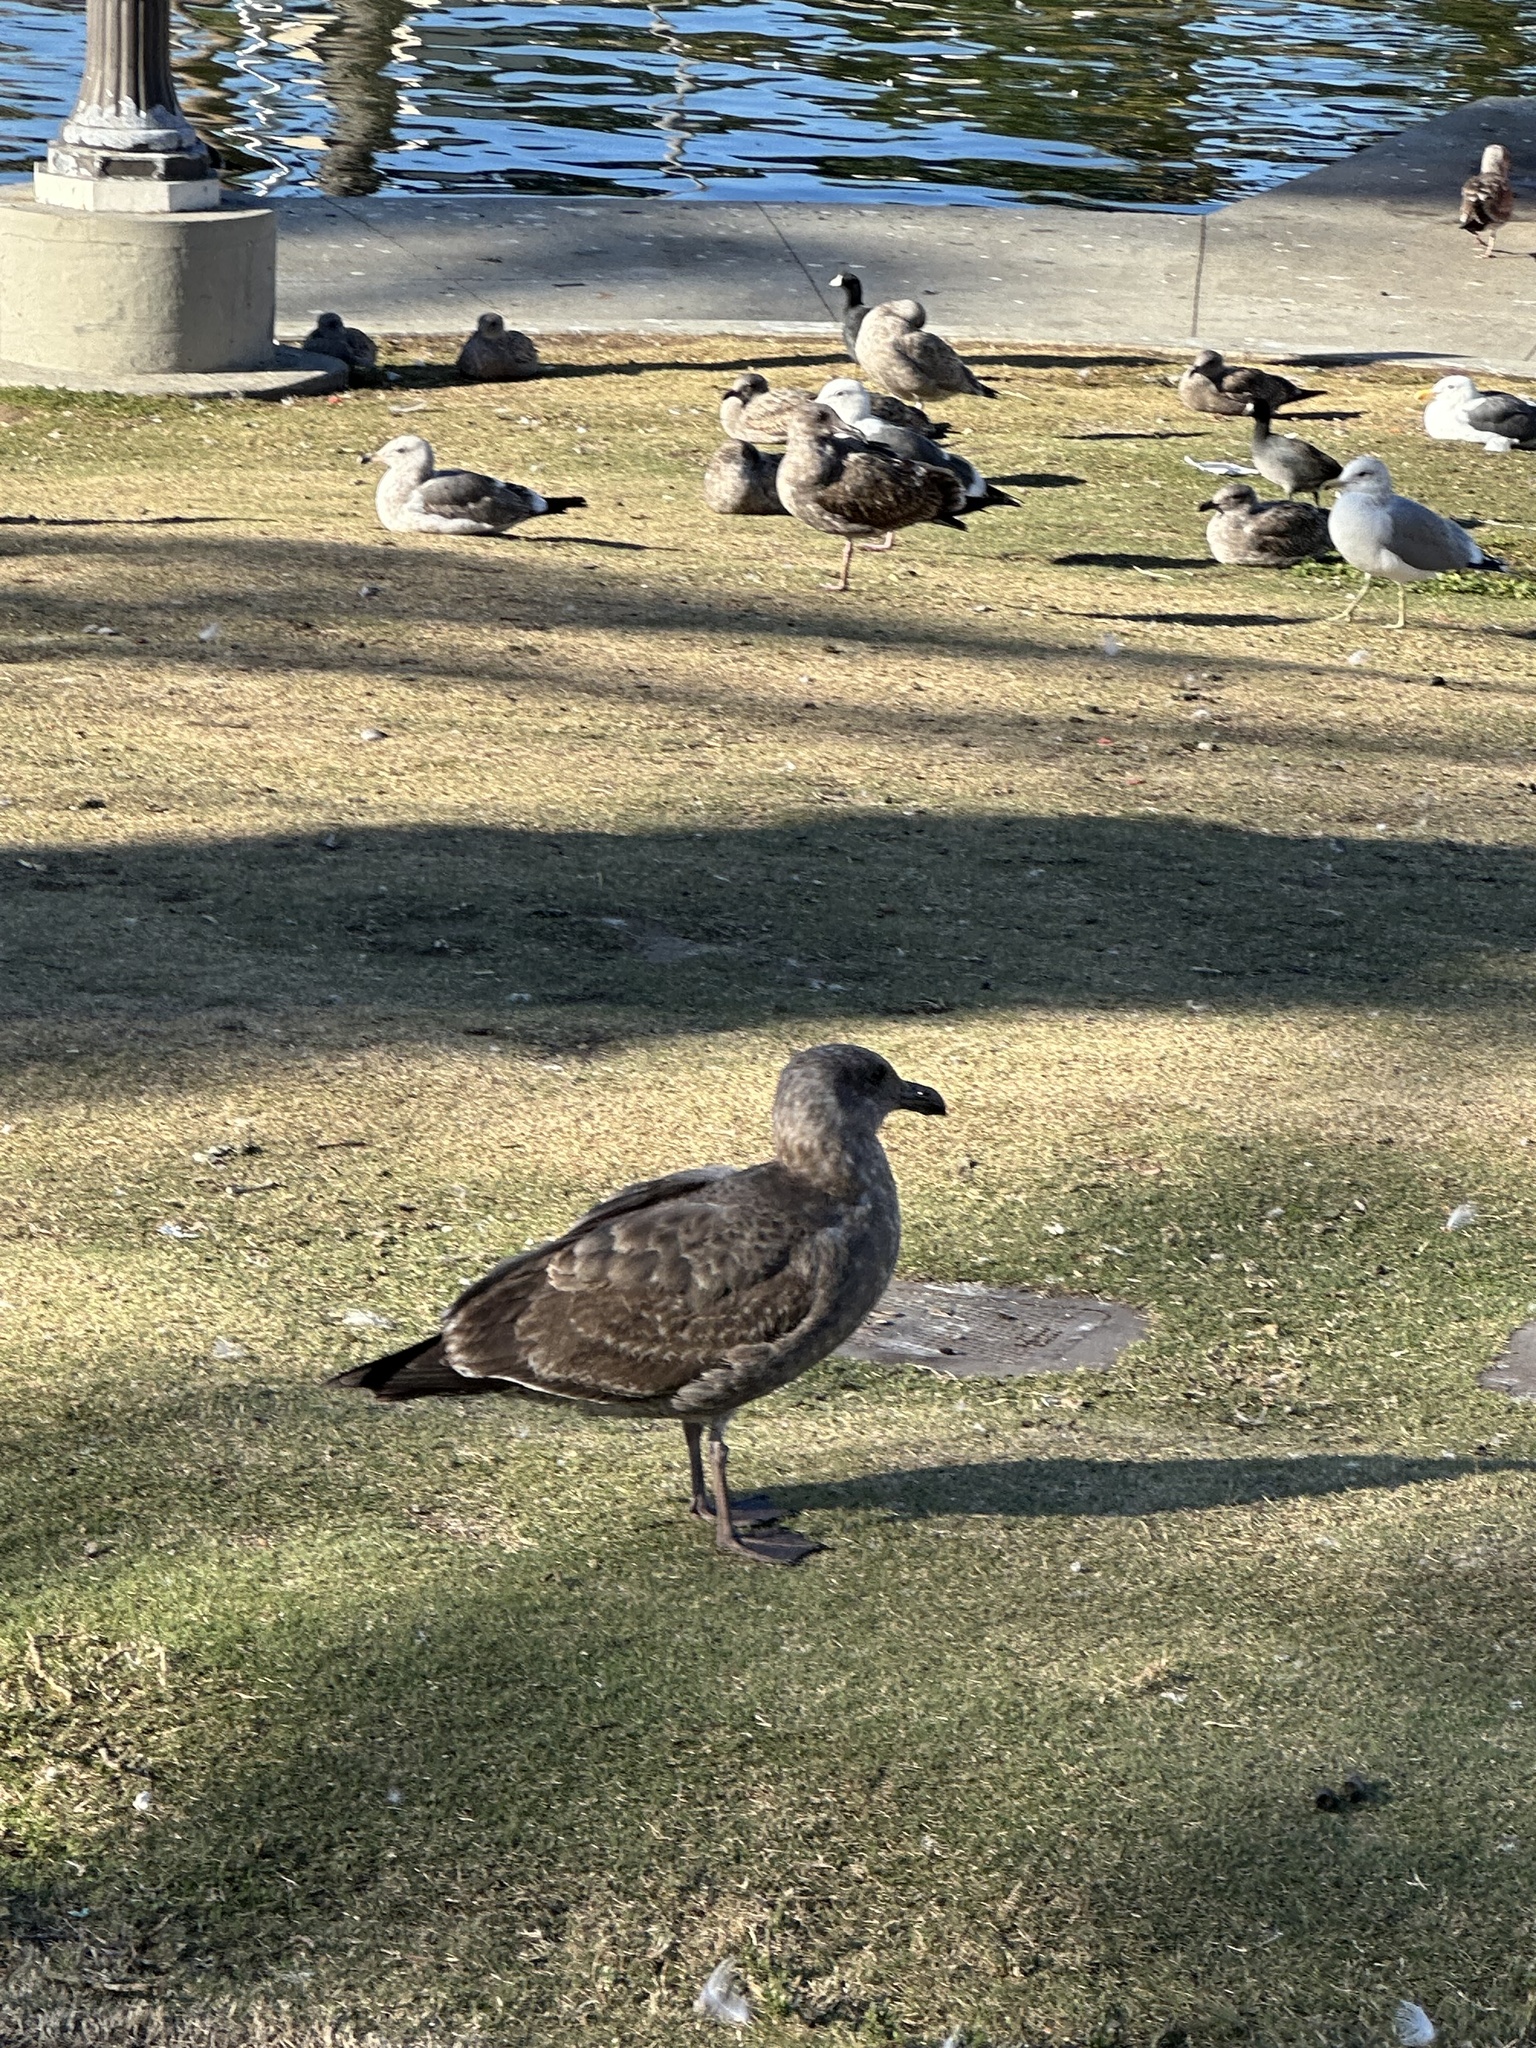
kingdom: Animalia
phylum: Chordata
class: Aves
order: Charadriiformes
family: Laridae
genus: Larus
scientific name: Larus occidentalis
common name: Western gull
